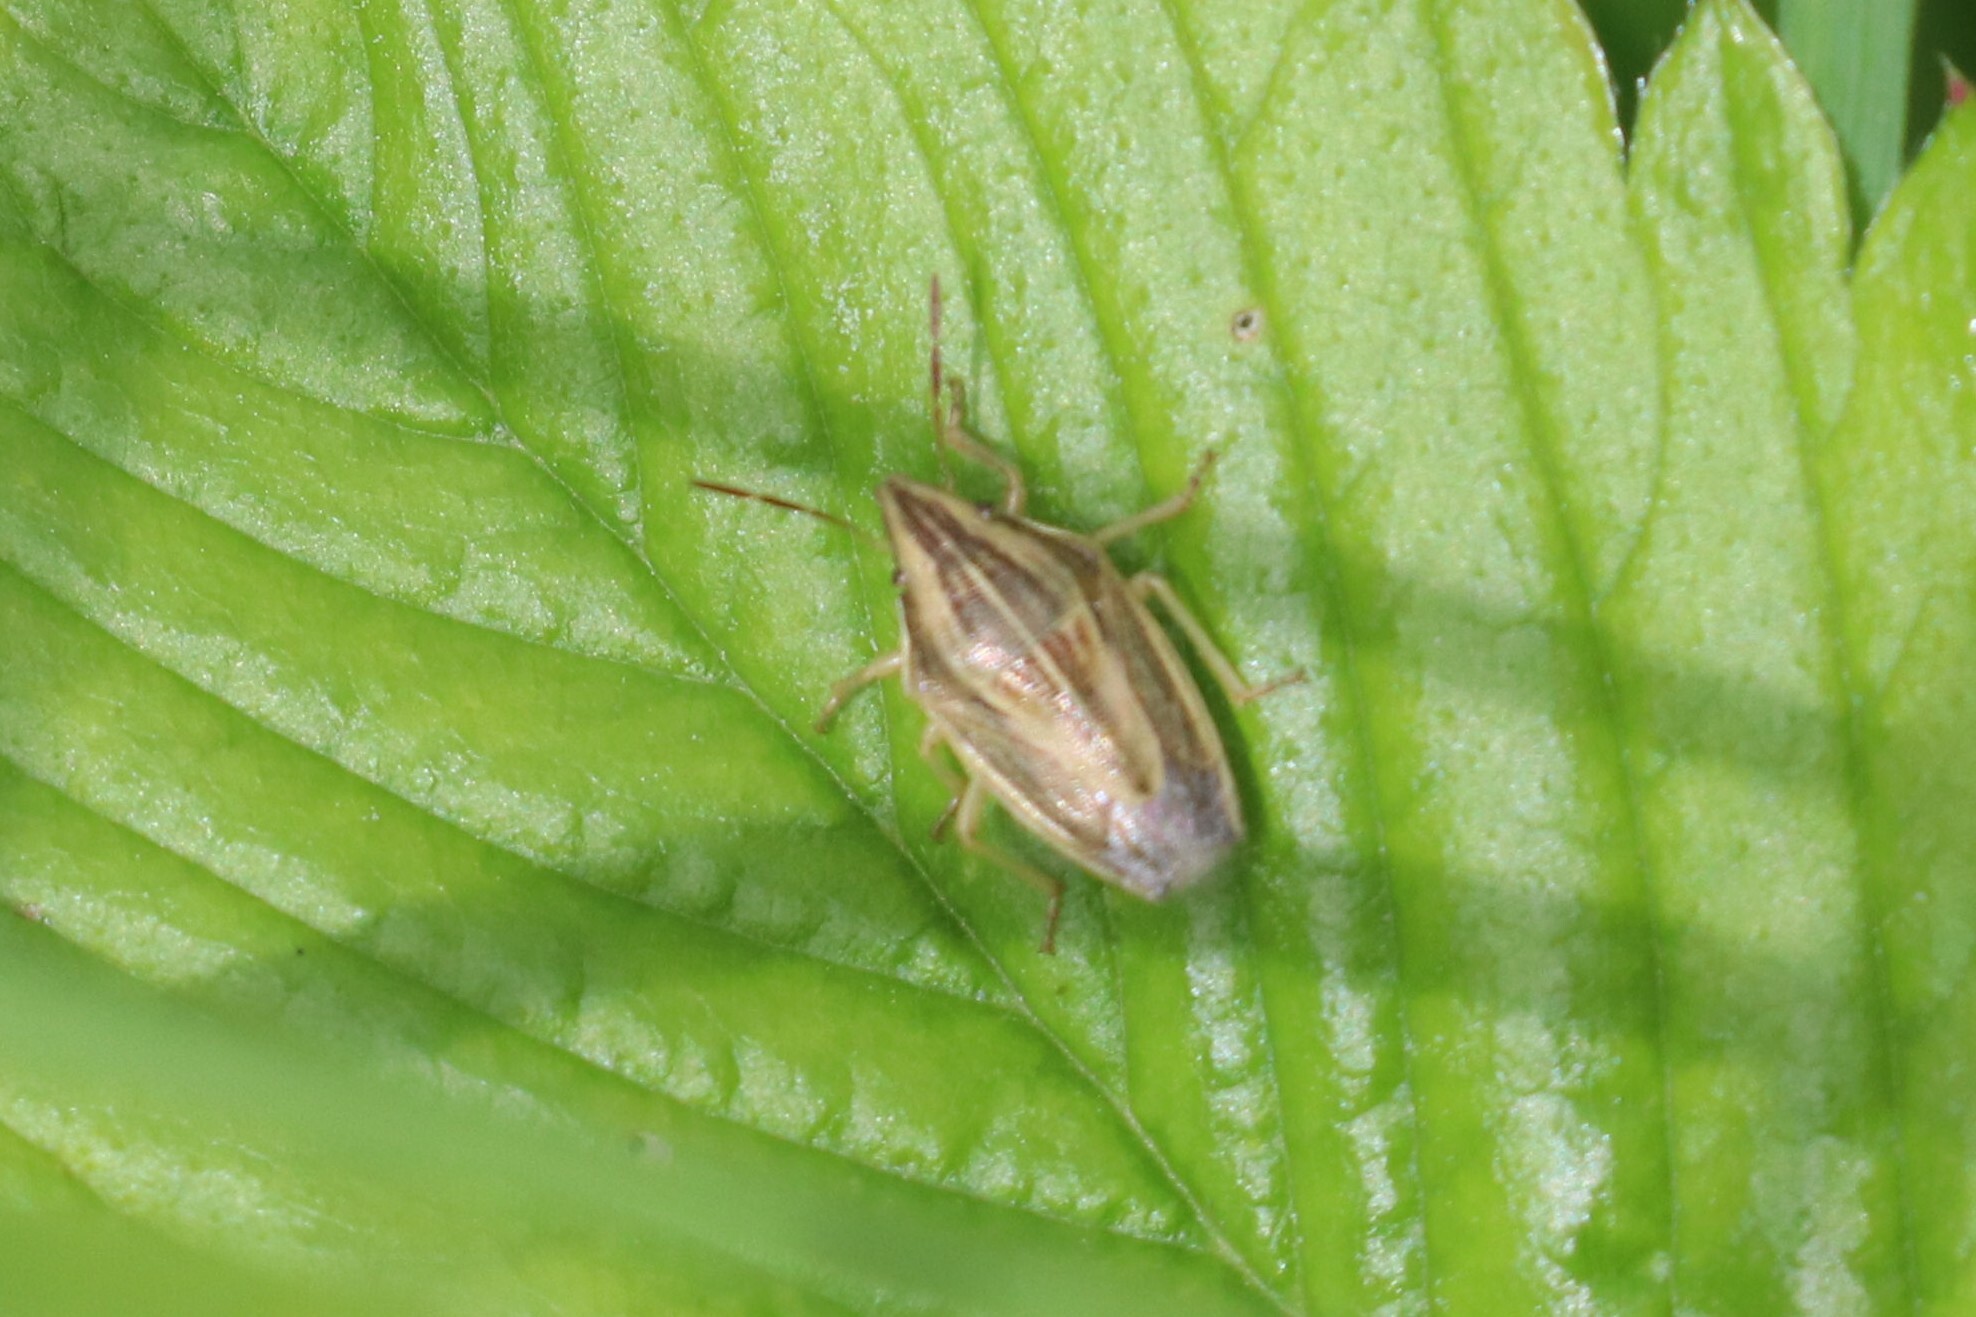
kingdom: Animalia
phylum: Arthropoda
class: Insecta
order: Hemiptera
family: Pentatomidae
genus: Aelia
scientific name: Aelia acuminata
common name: Bishop's mitre
